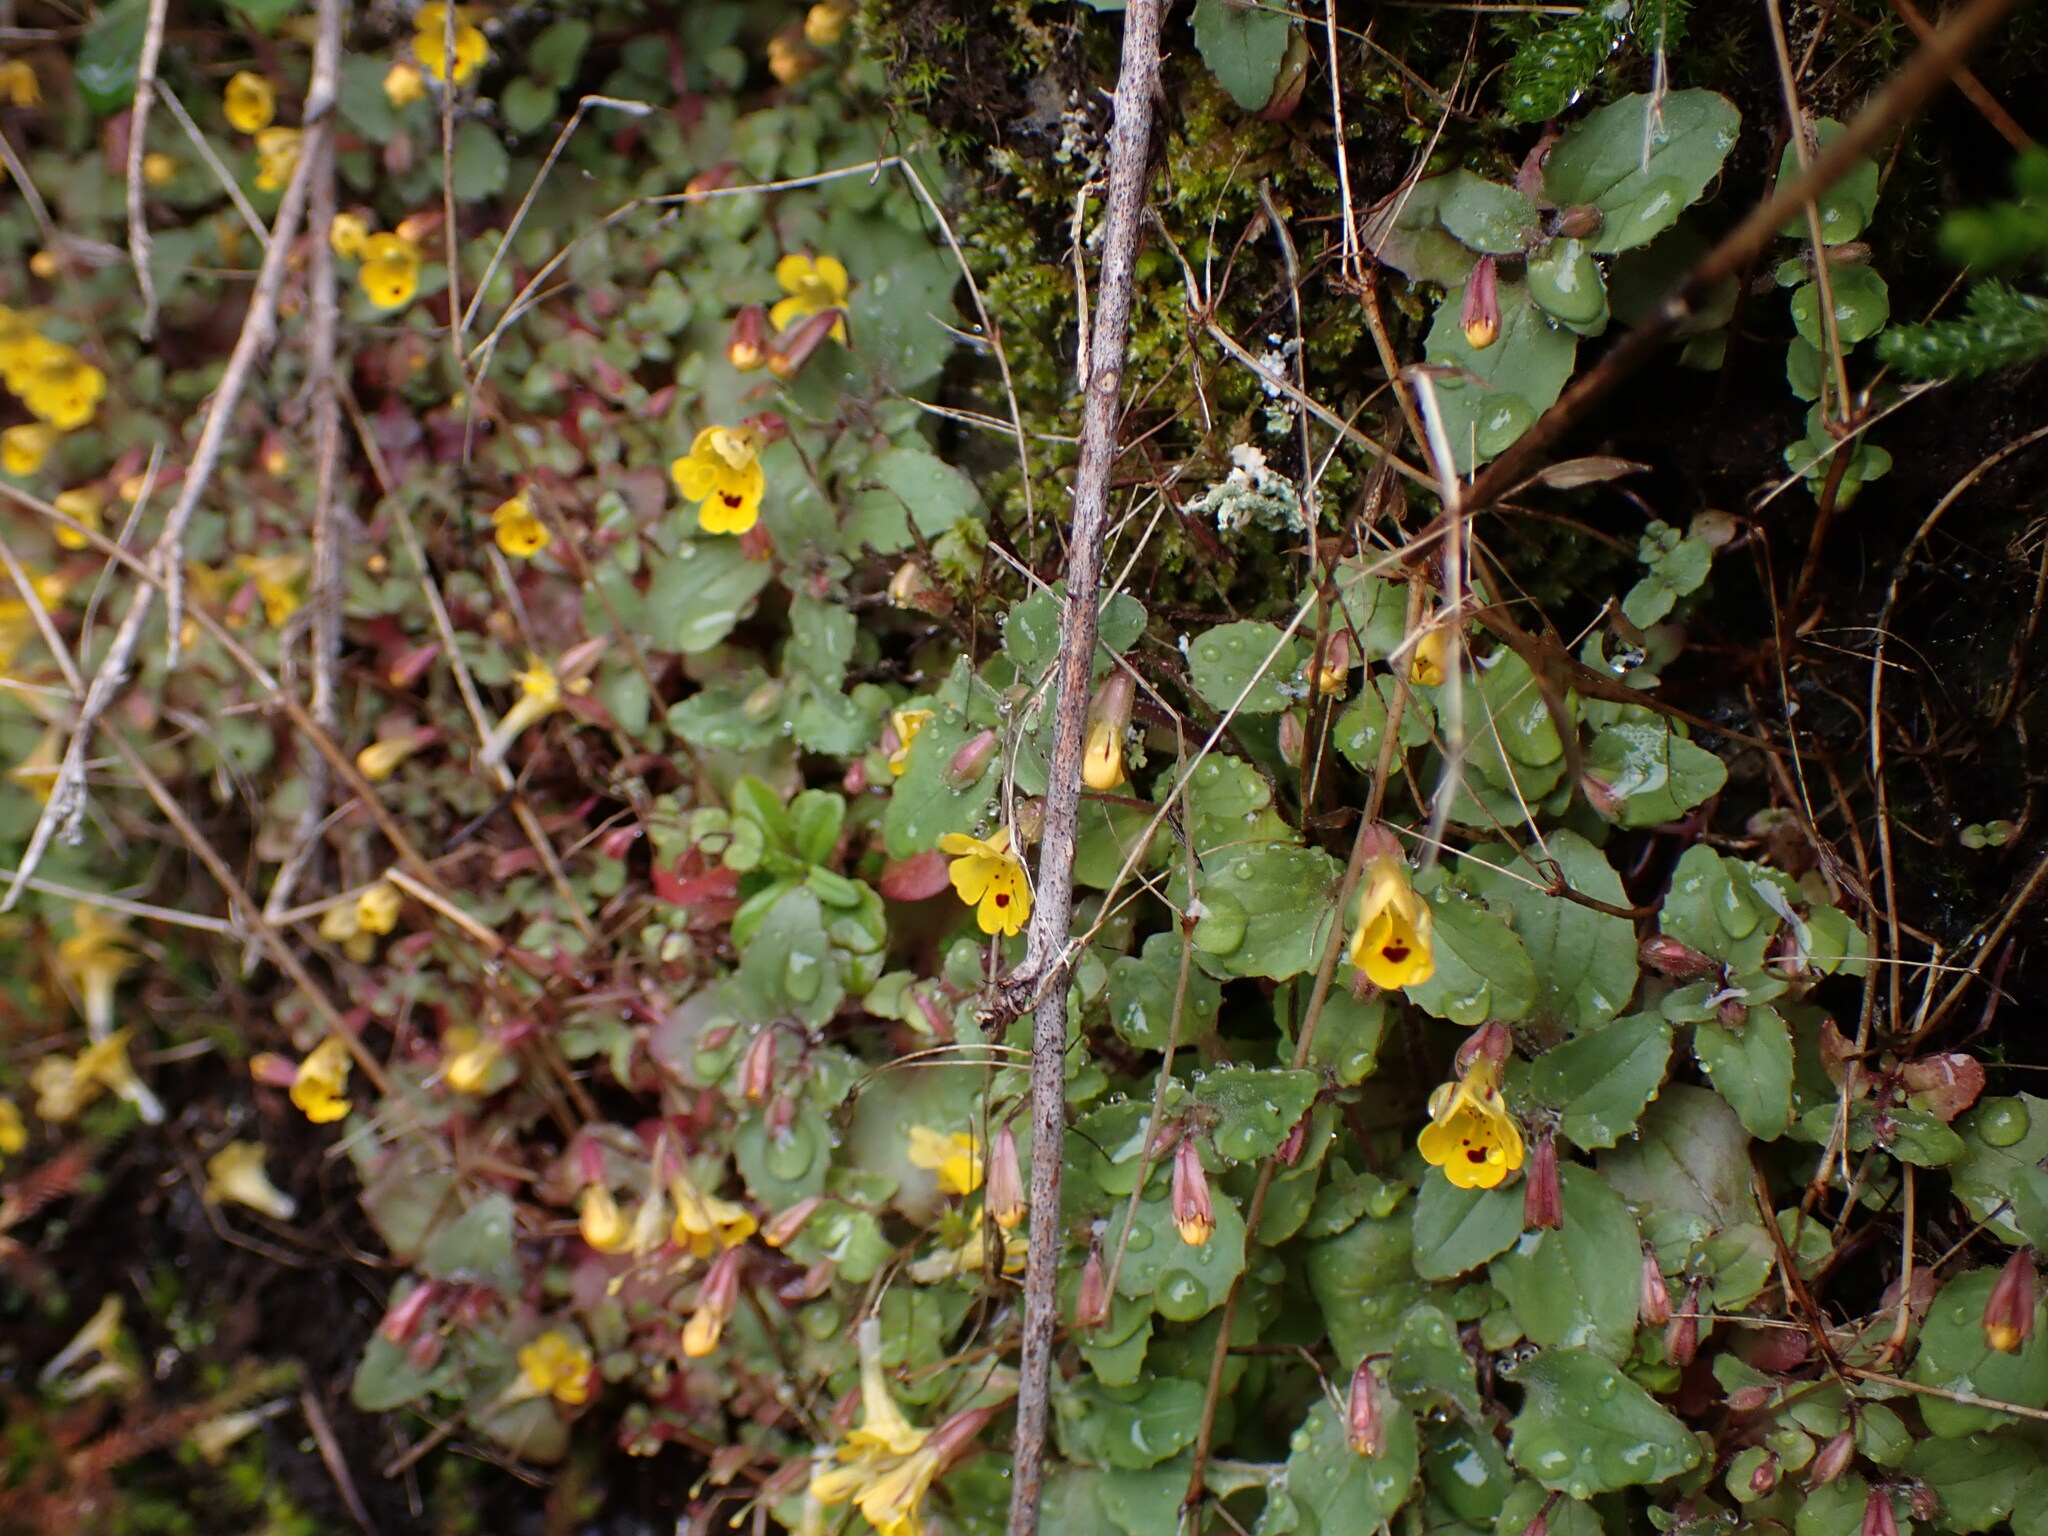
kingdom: Plantae
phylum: Tracheophyta
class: Magnoliopsida
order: Lamiales
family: Phrymaceae
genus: Erythranthe
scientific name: Erythranthe alsinoides
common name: Chickweed monkeyflower
